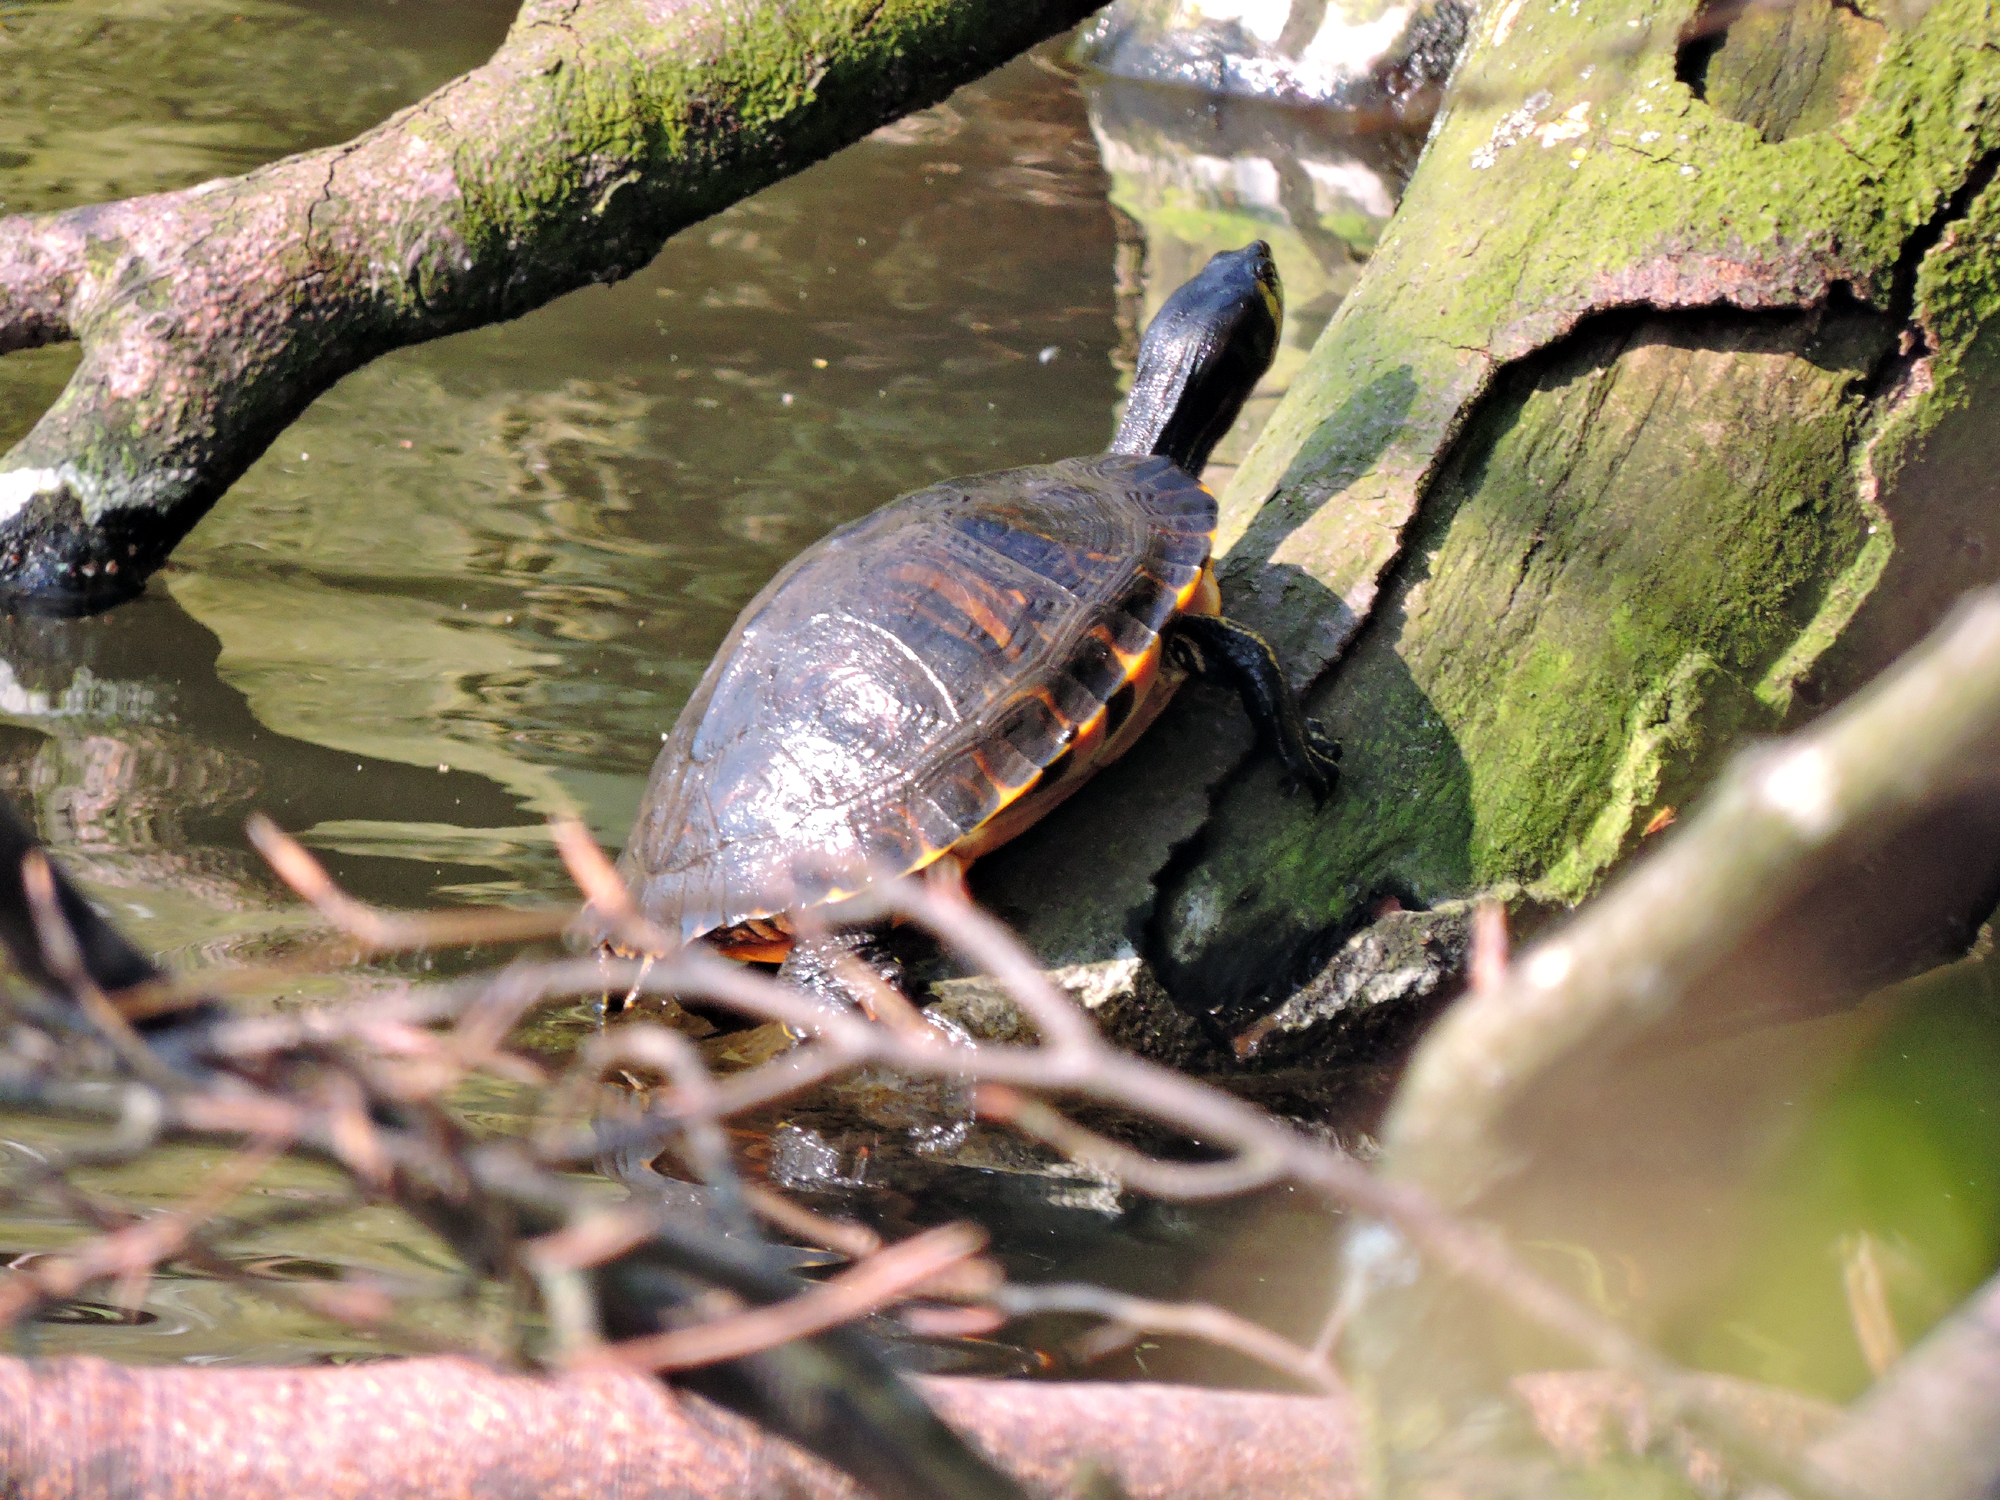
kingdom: Animalia
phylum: Chordata
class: Testudines
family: Emydidae
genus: Trachemys
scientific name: Trachemys scripta
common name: Slider
